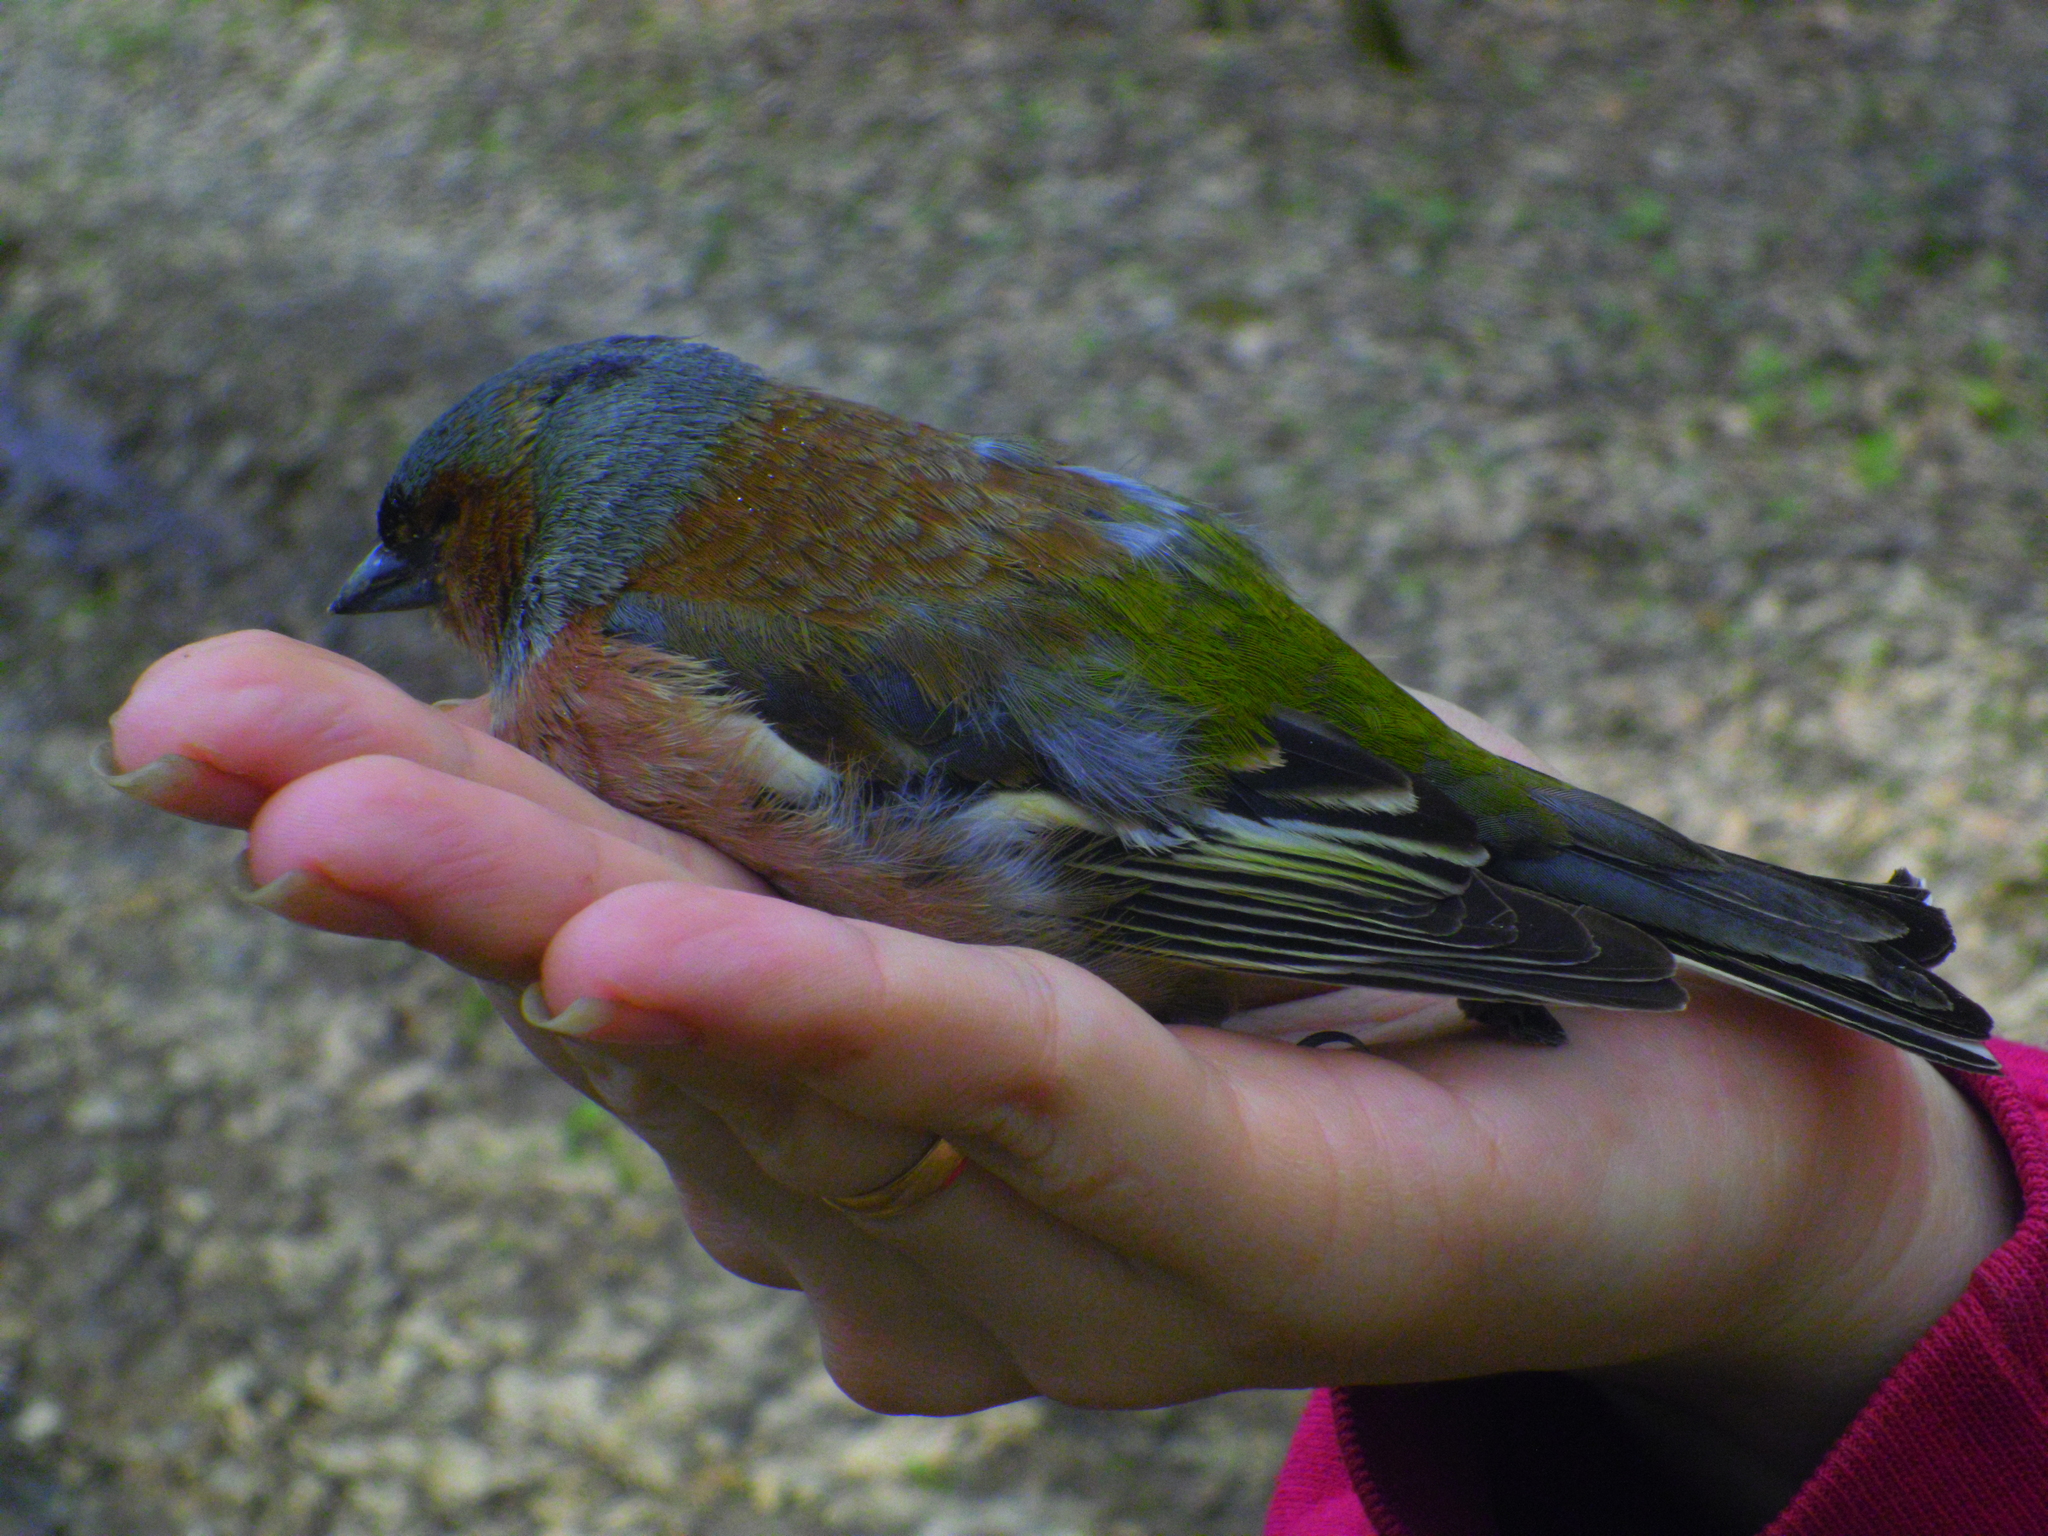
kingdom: Animalia
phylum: Chordata
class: Aves
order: Passeriformes
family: Fringillidae
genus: Fringilla
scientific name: Fringilla coelebs
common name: Common chaffinch
